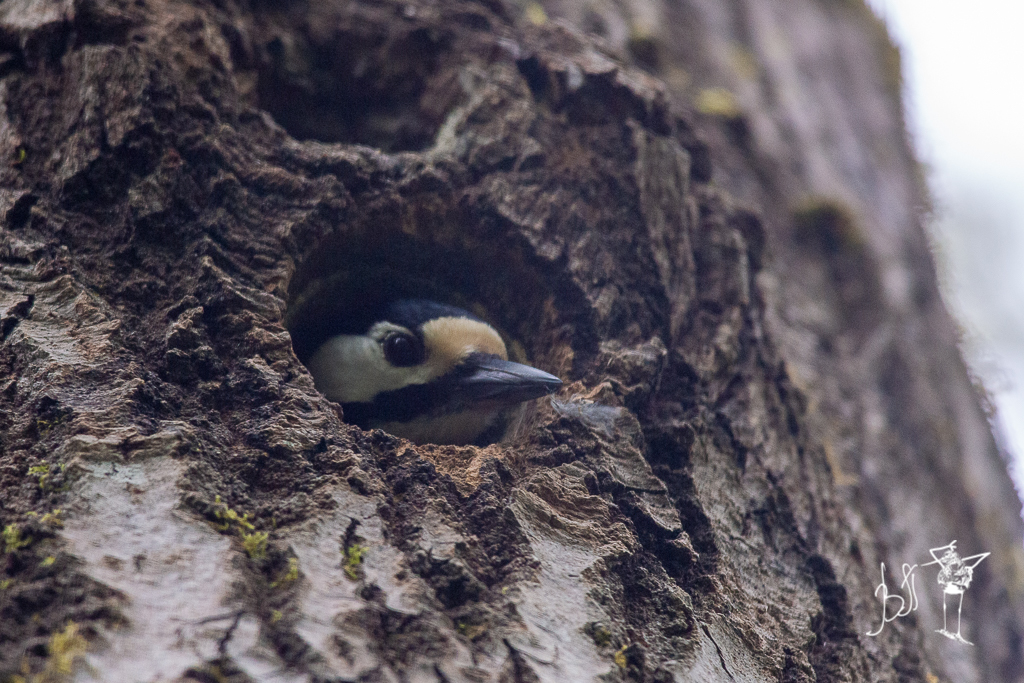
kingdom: Animalia
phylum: Chordata
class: Aves
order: Piciformes
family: Picidae
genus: Dendrocopos
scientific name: Dendrocopos major
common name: Great spotted woodpecker
